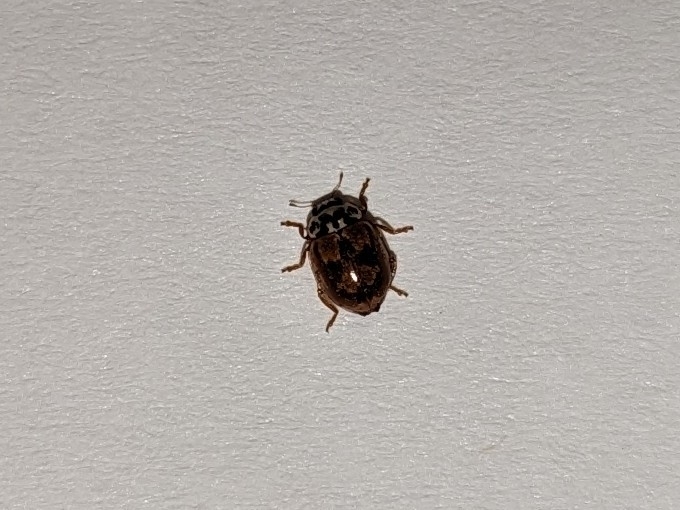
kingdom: Animalia
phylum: Arthropoda
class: Insecta
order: Coleoptera
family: Coccinellidae
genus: Mulsantina
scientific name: Mulsantina picta
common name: Painted ladybird
